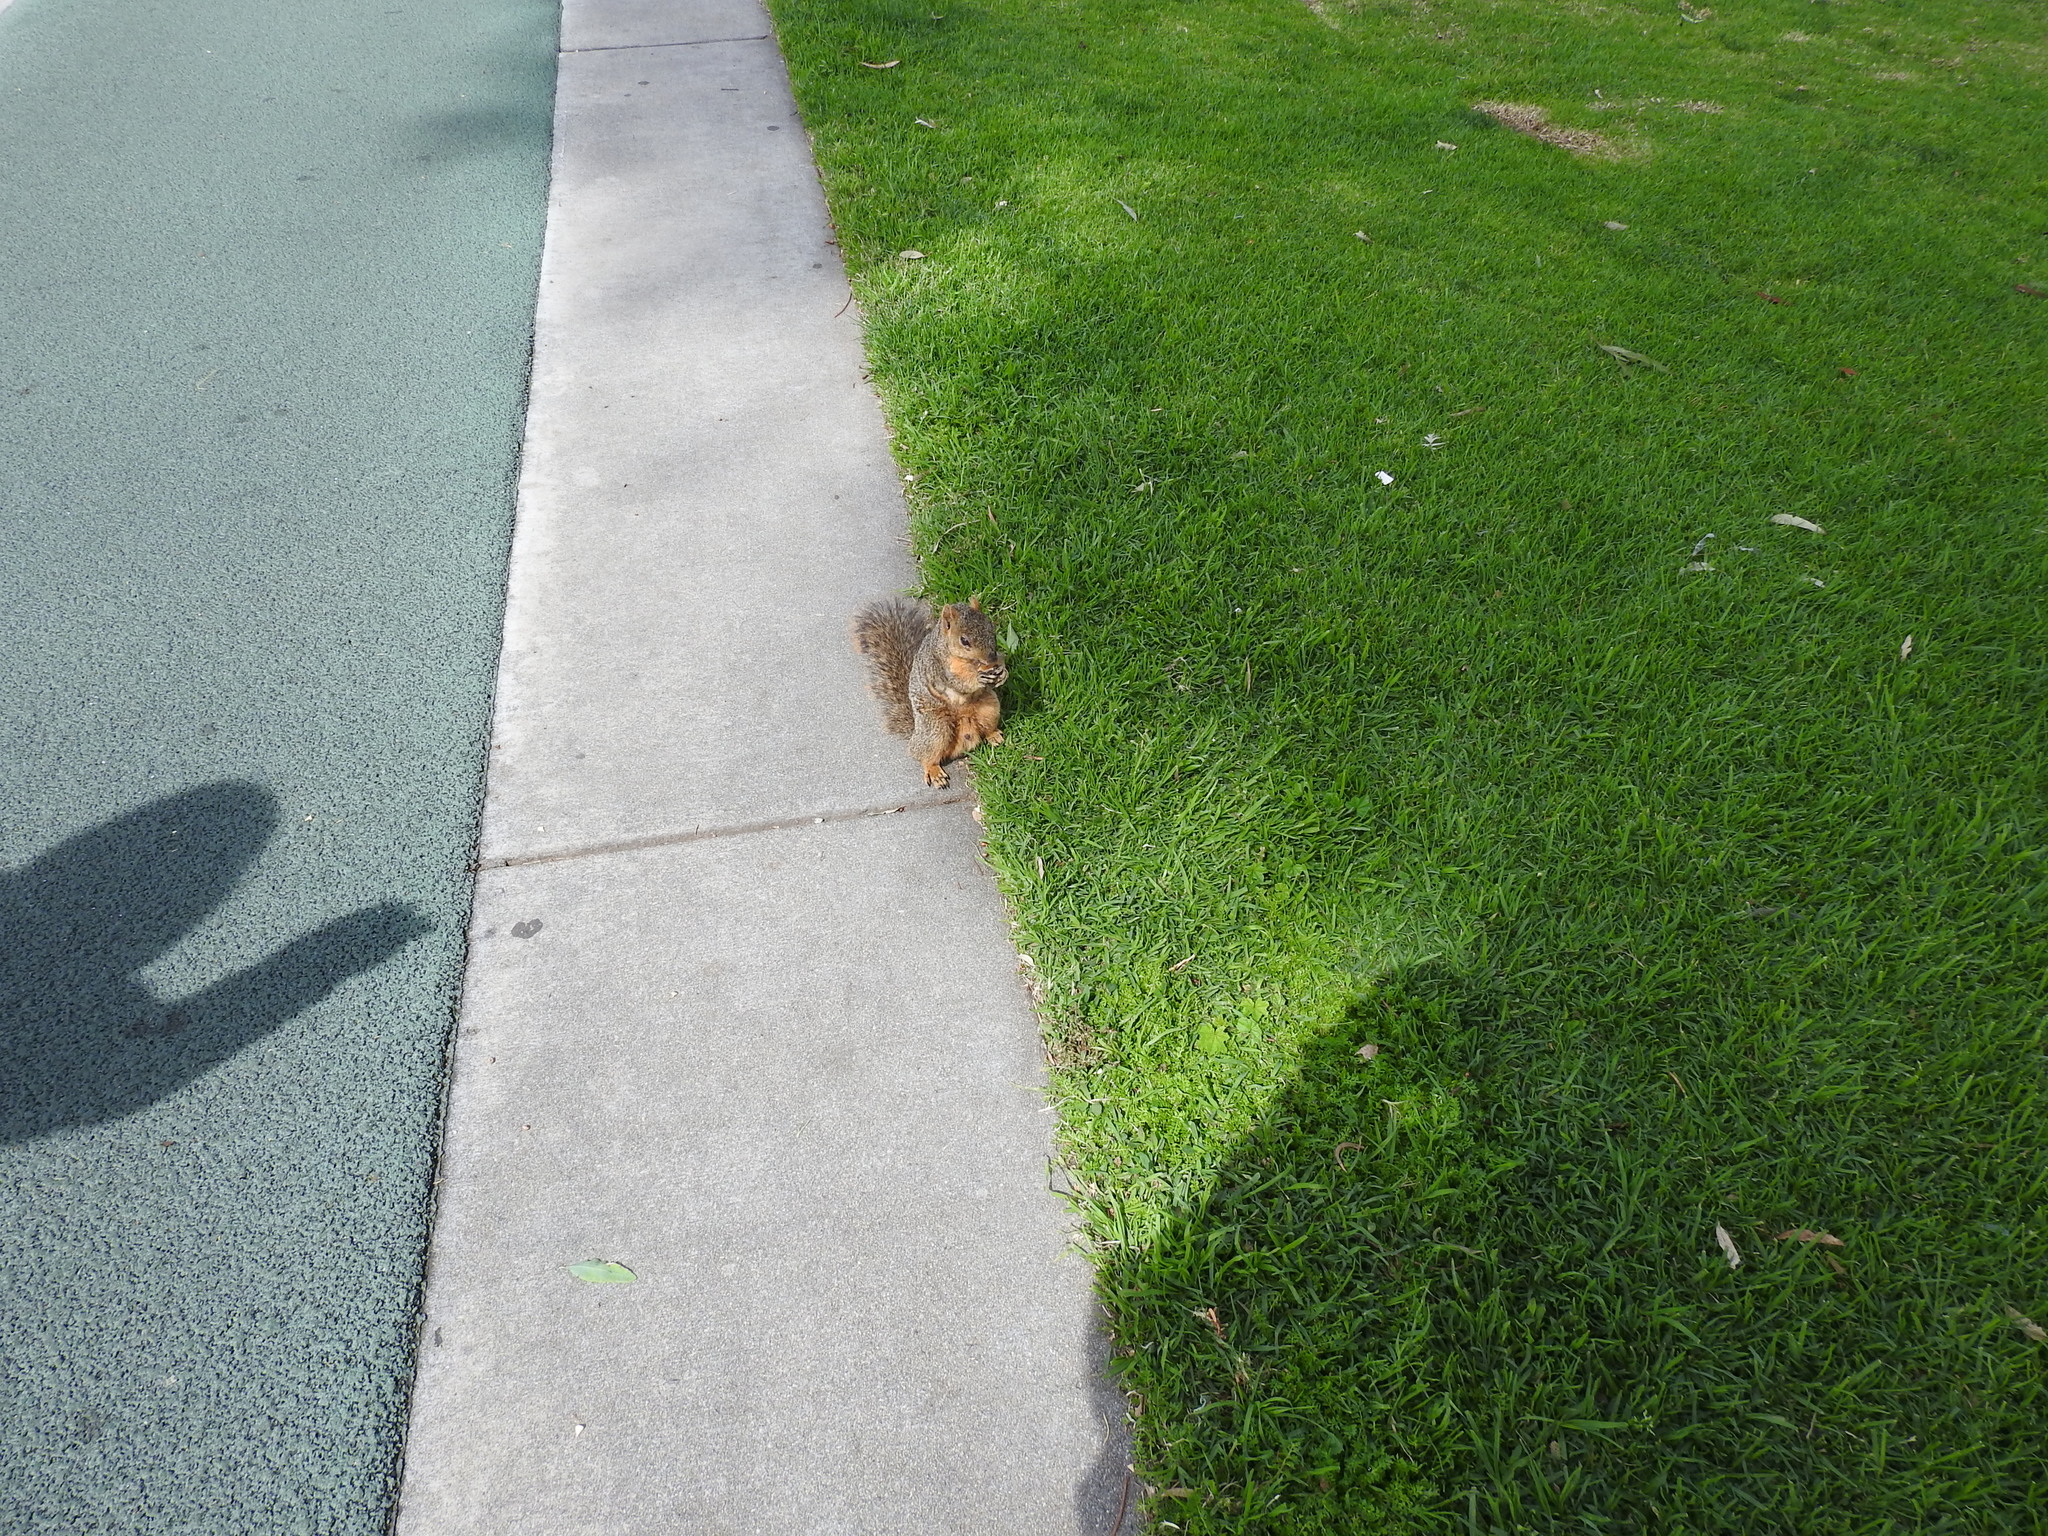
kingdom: Animalia
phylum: Chordata
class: Mammalia
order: Rodentia
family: Sciuridae
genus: Sciurus
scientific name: Sciurus niger
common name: Fox squirrel
